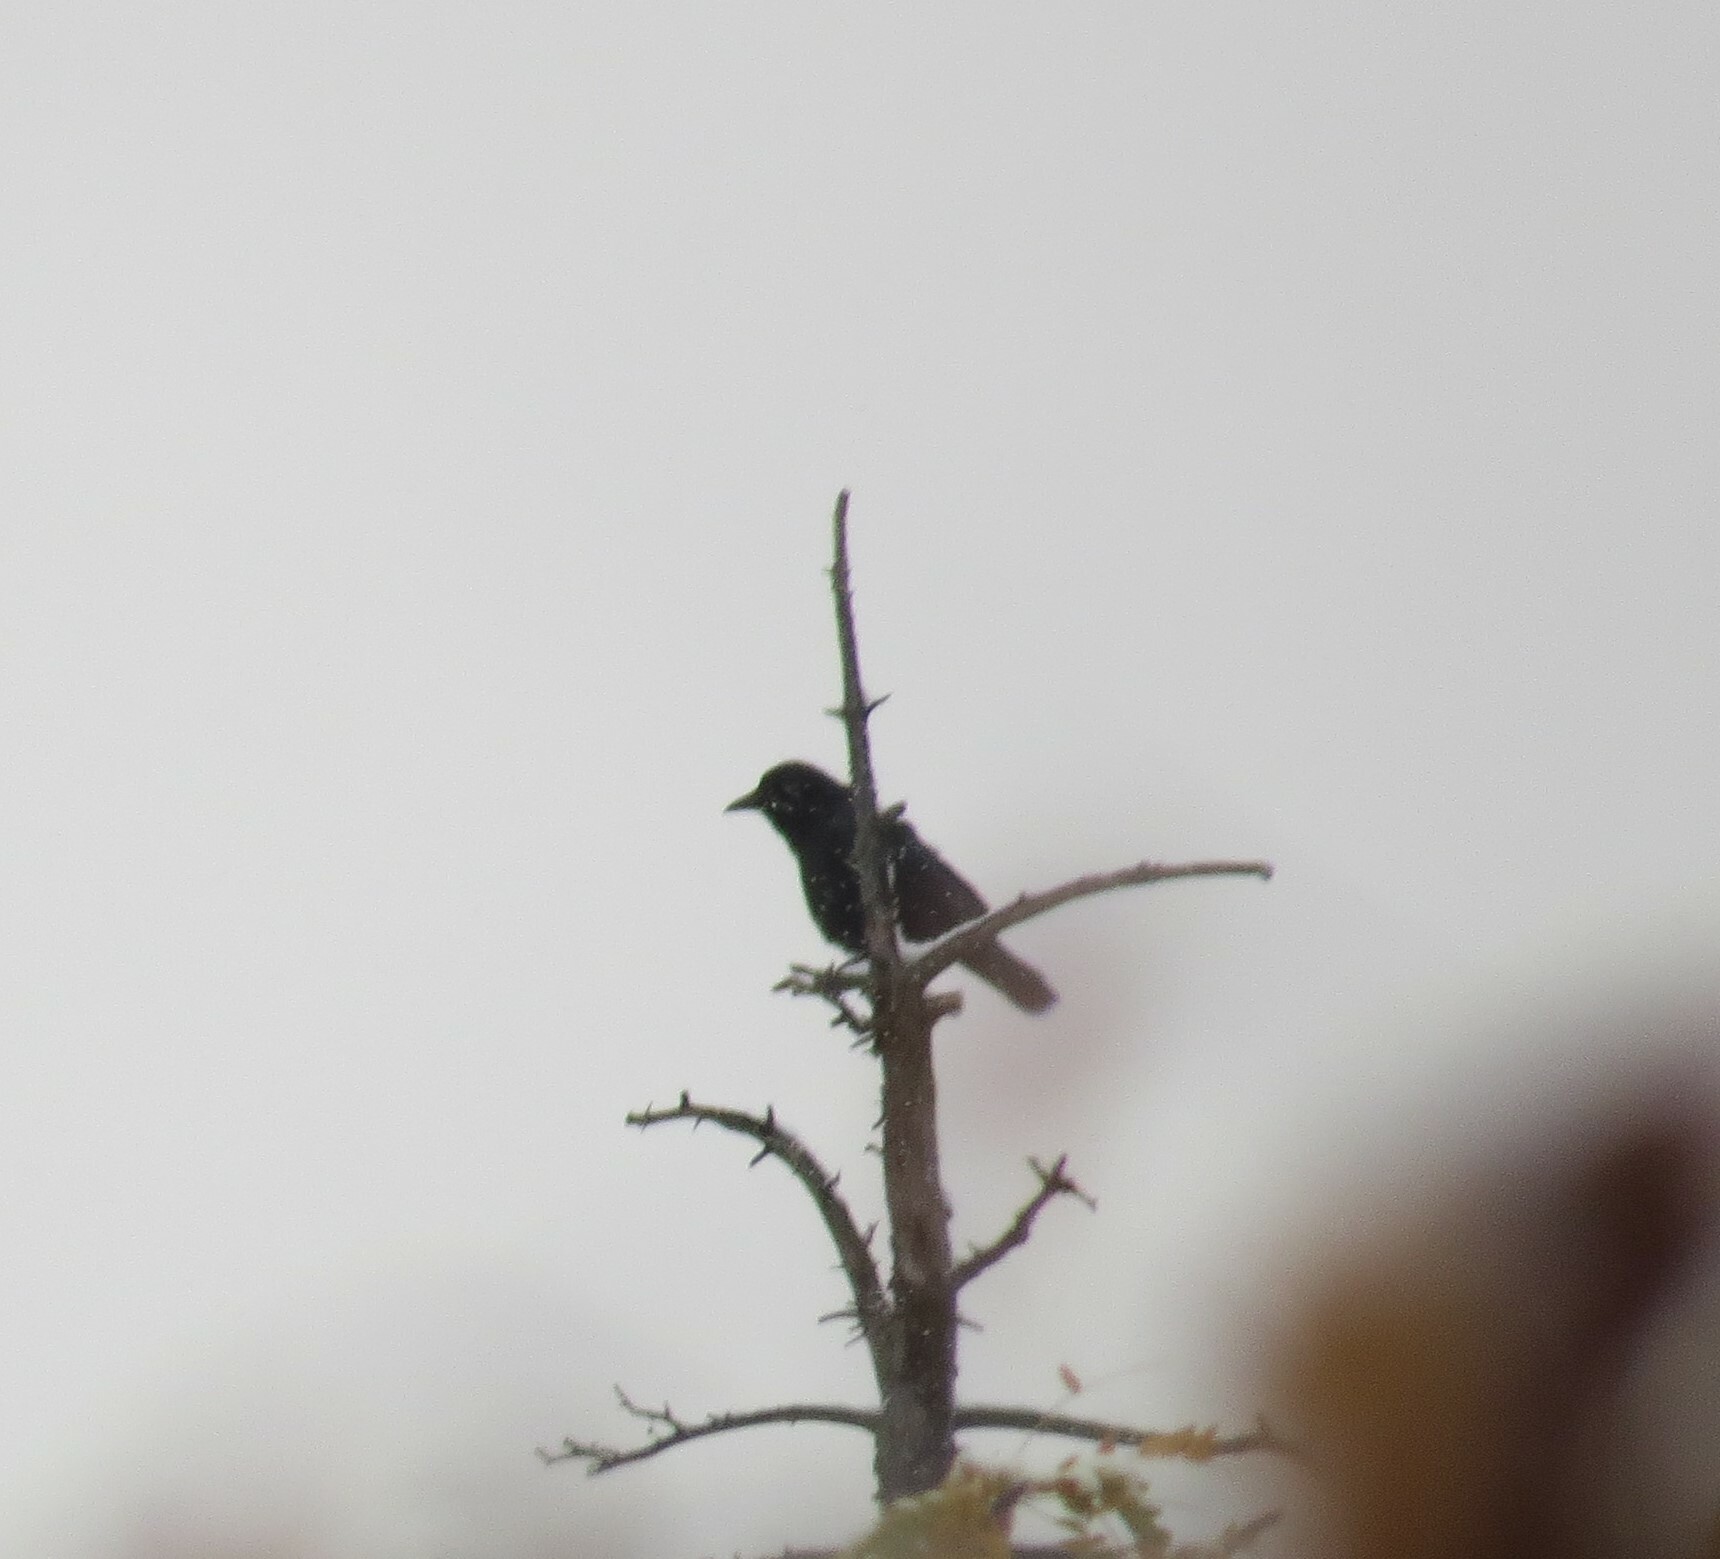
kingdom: Animalia
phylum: Chordata
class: Aves
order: Passeriformes
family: Corvidae
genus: Corvus
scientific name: Corvus brachyrhynchos
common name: American crow
